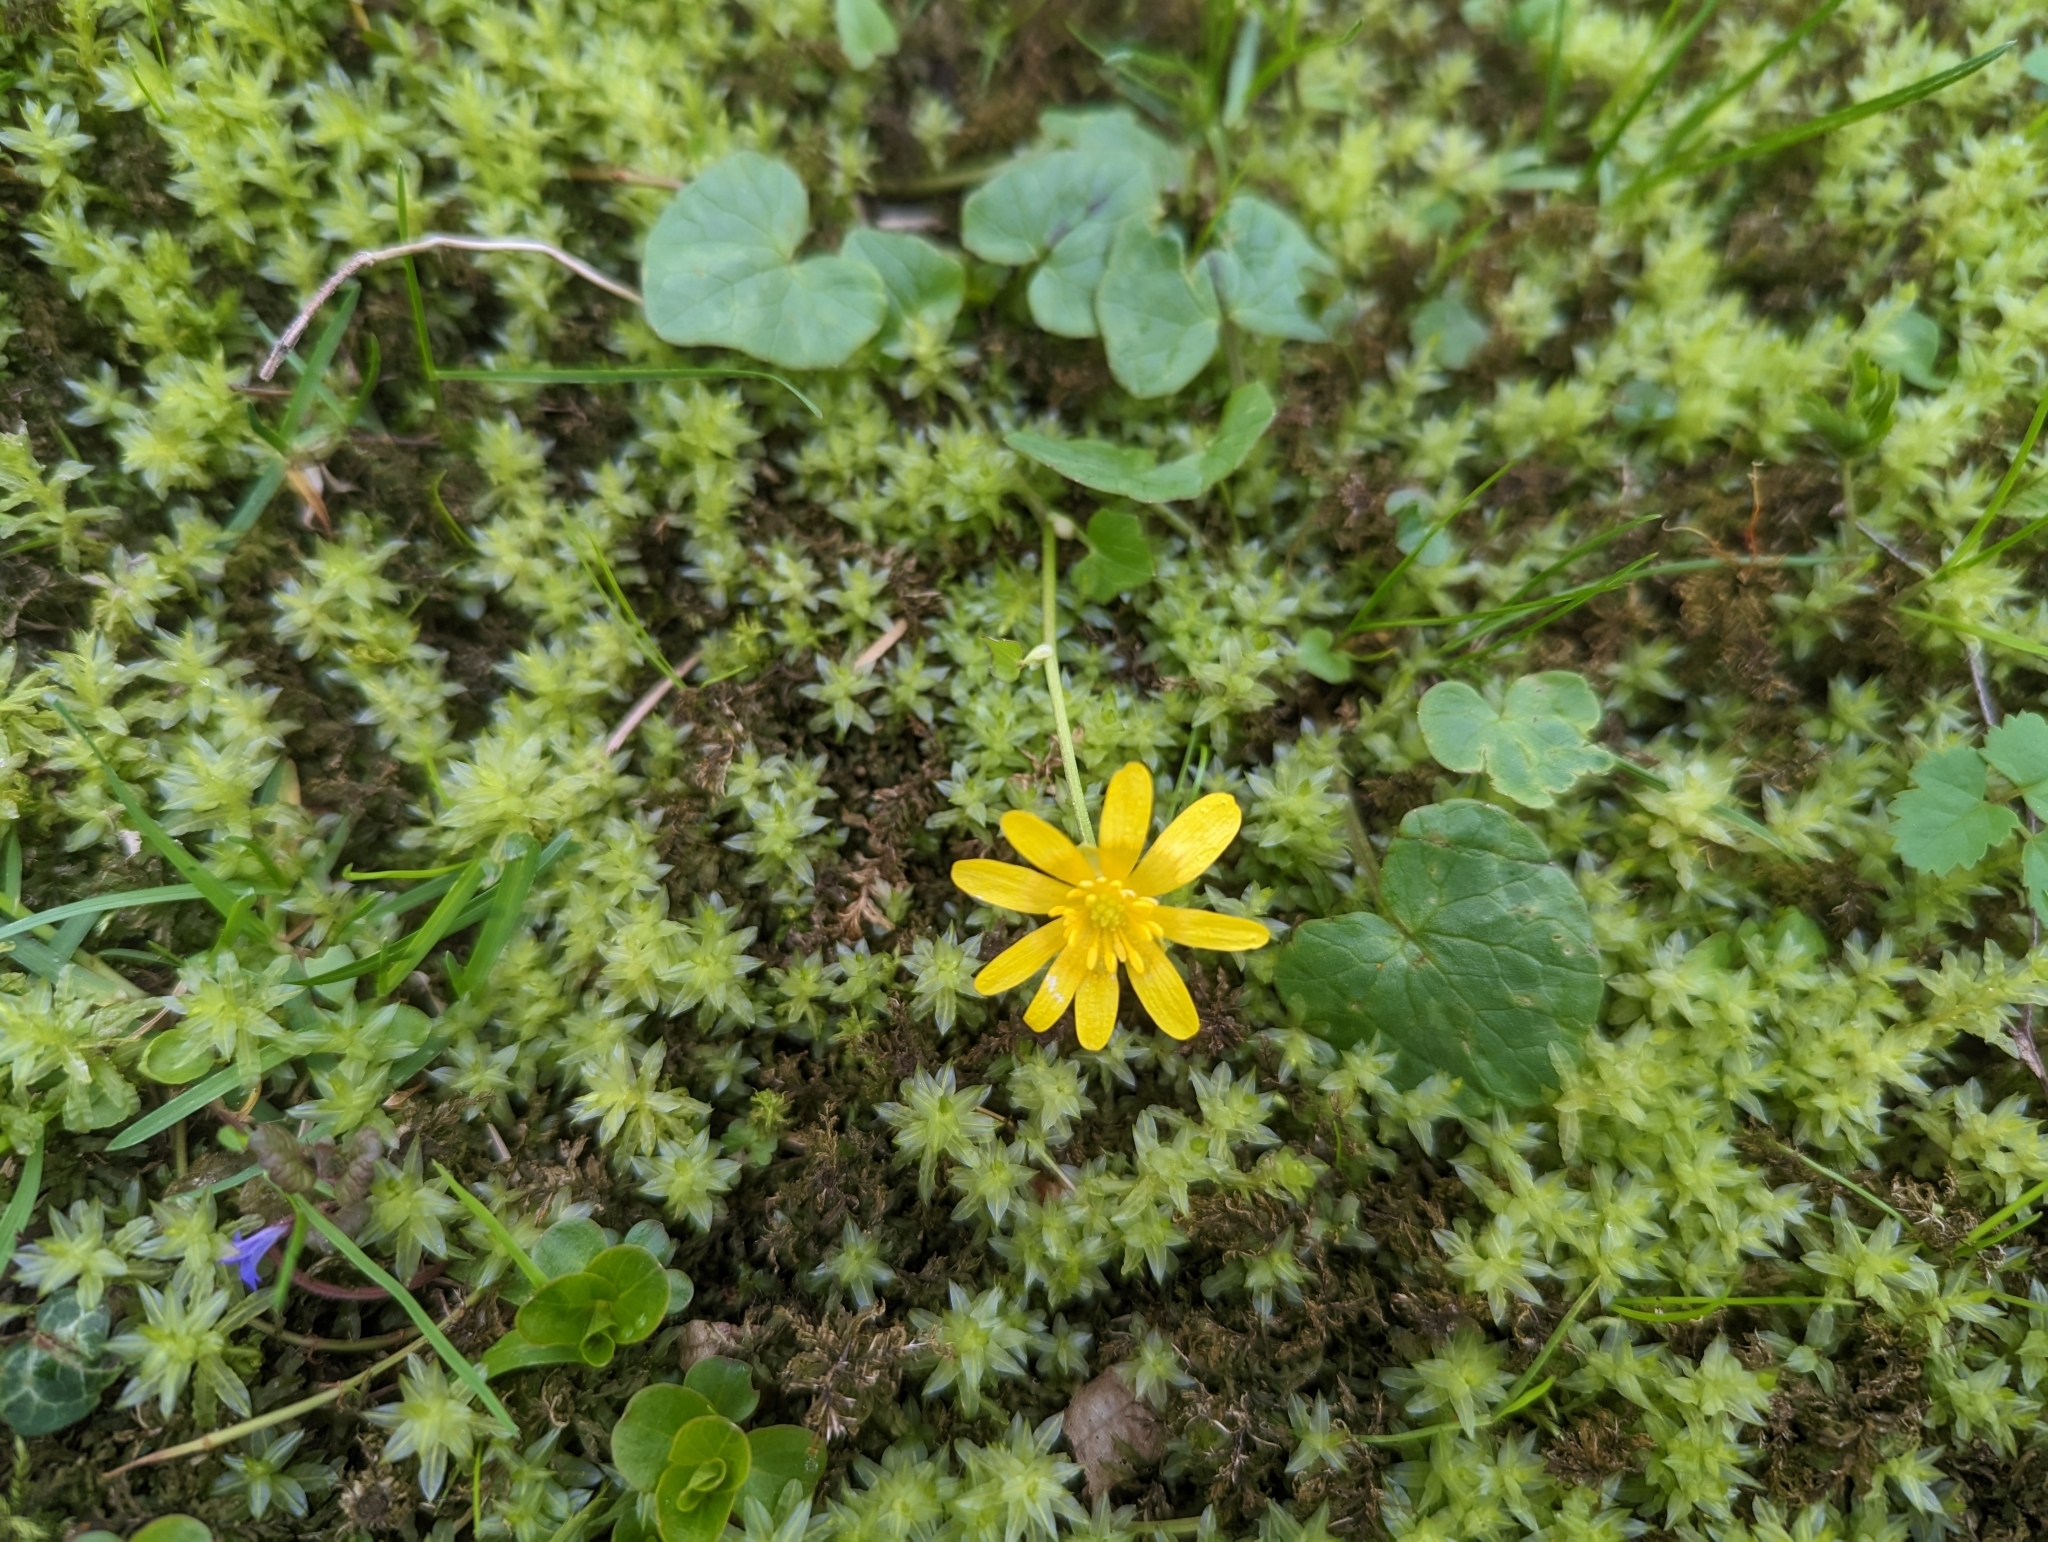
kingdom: Plantae
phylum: Tracheophyta
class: Magnoliopsida
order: Ranunculales
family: Ranunculaceae
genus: Ficaria
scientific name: Ficaria verna
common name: Lesser celandine
